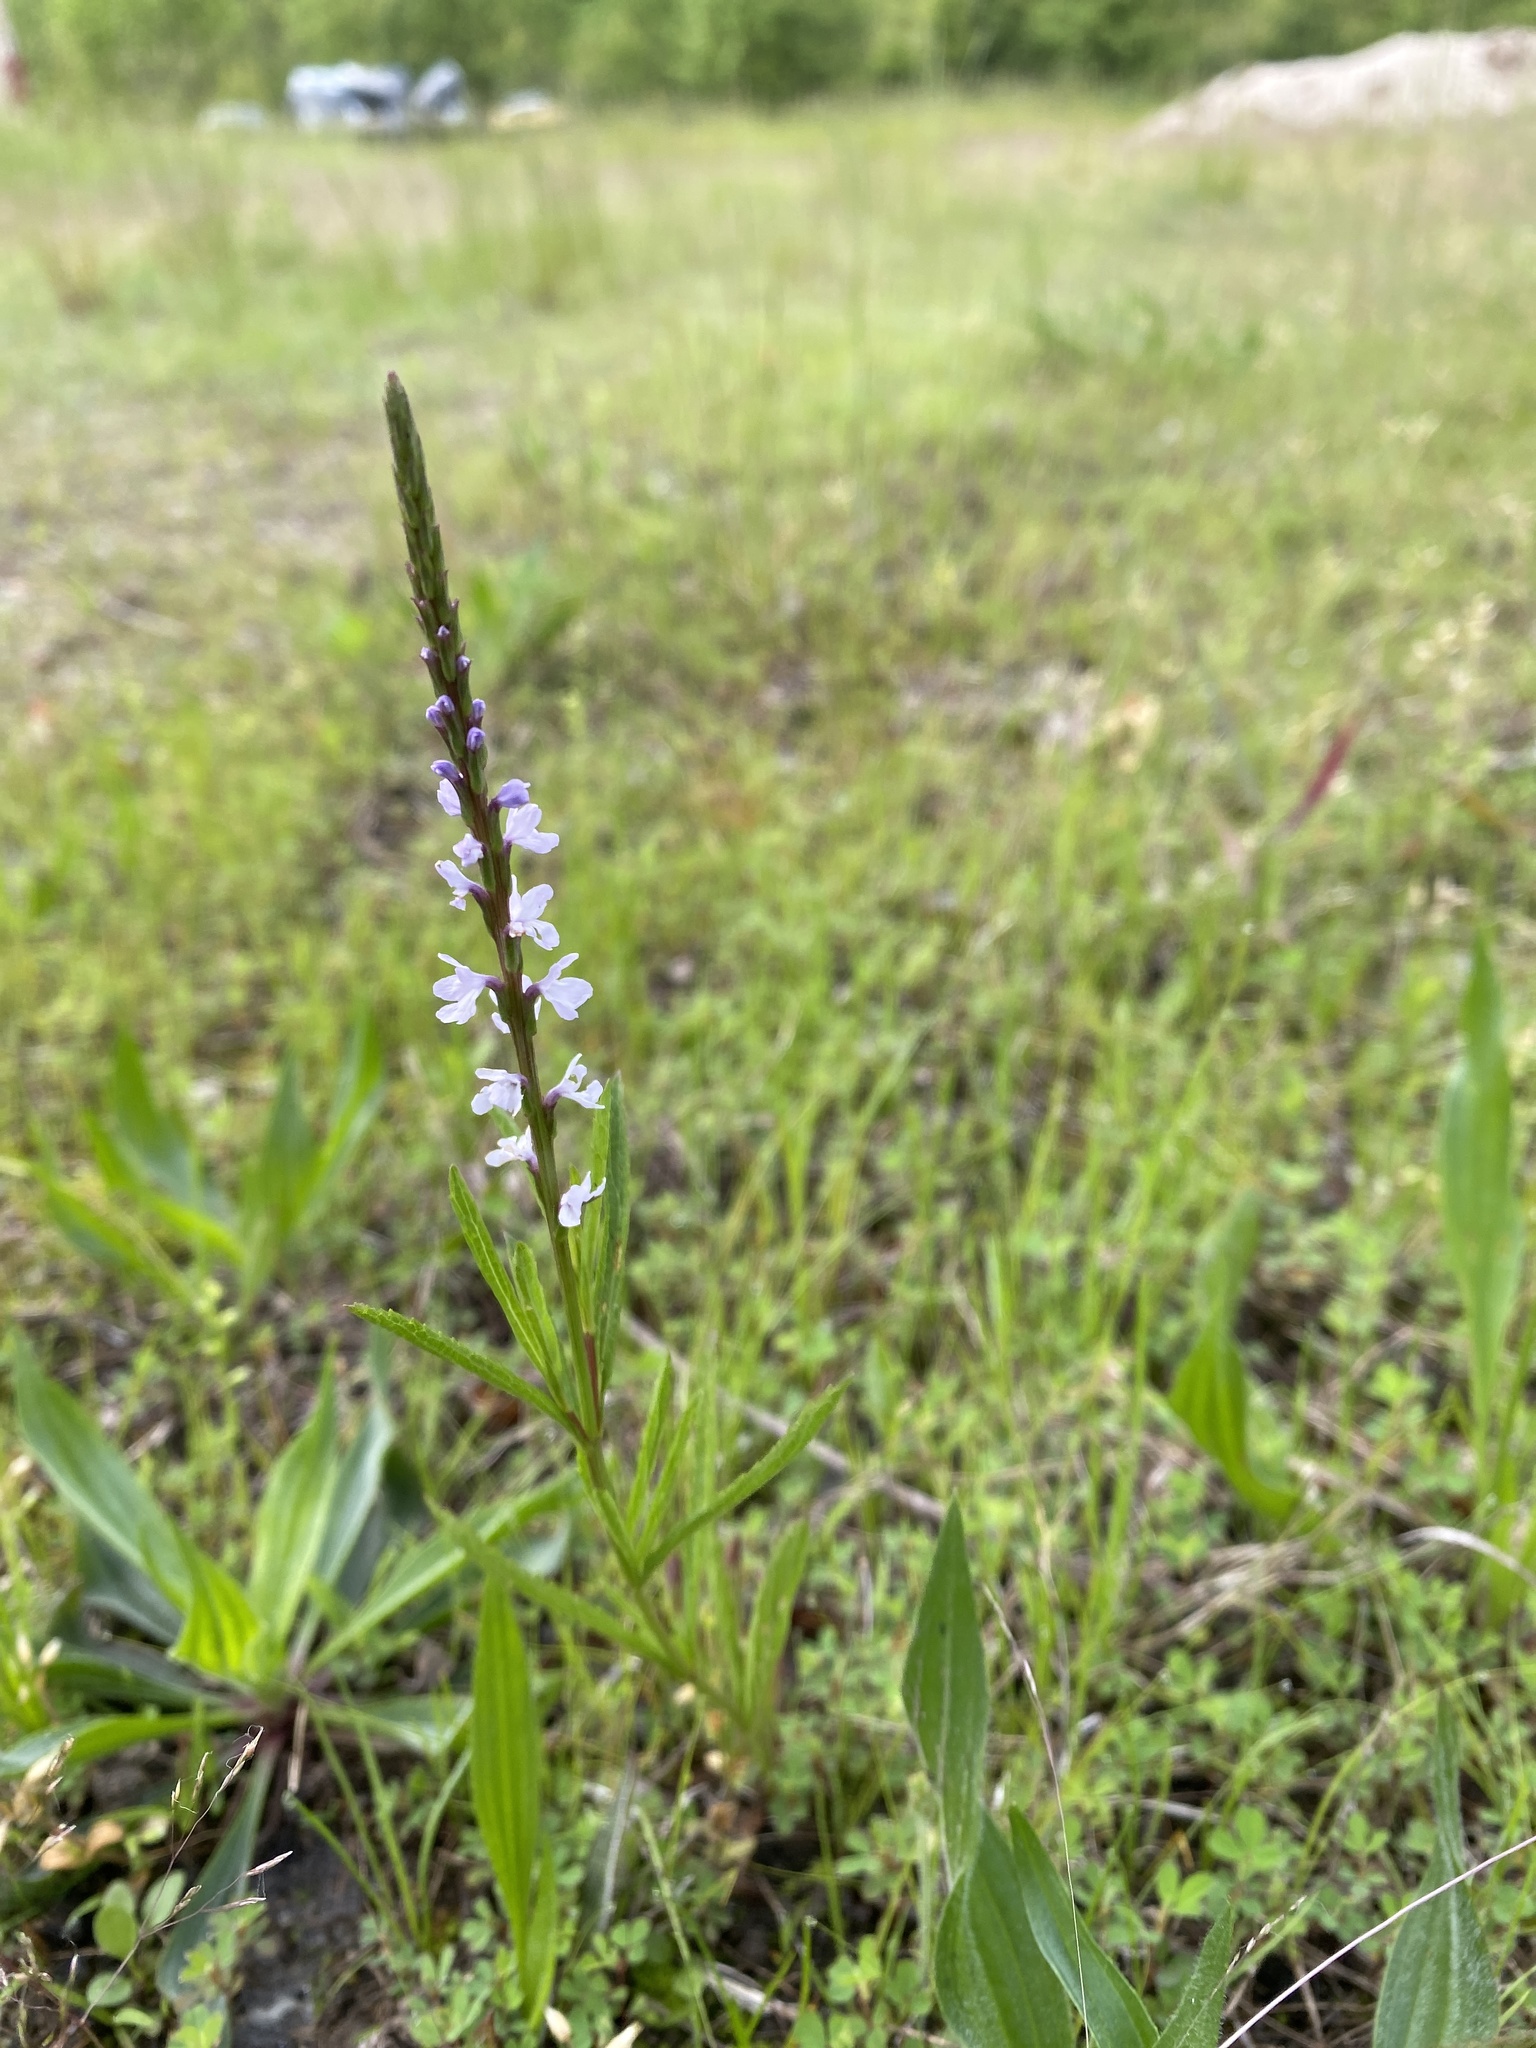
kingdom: Plantae
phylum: Tracheophyta
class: Magnoliopsida
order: Lamiales
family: Verbenaceae
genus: Verbena
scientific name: Verbena simplex
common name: Narrow-leaf vervain
